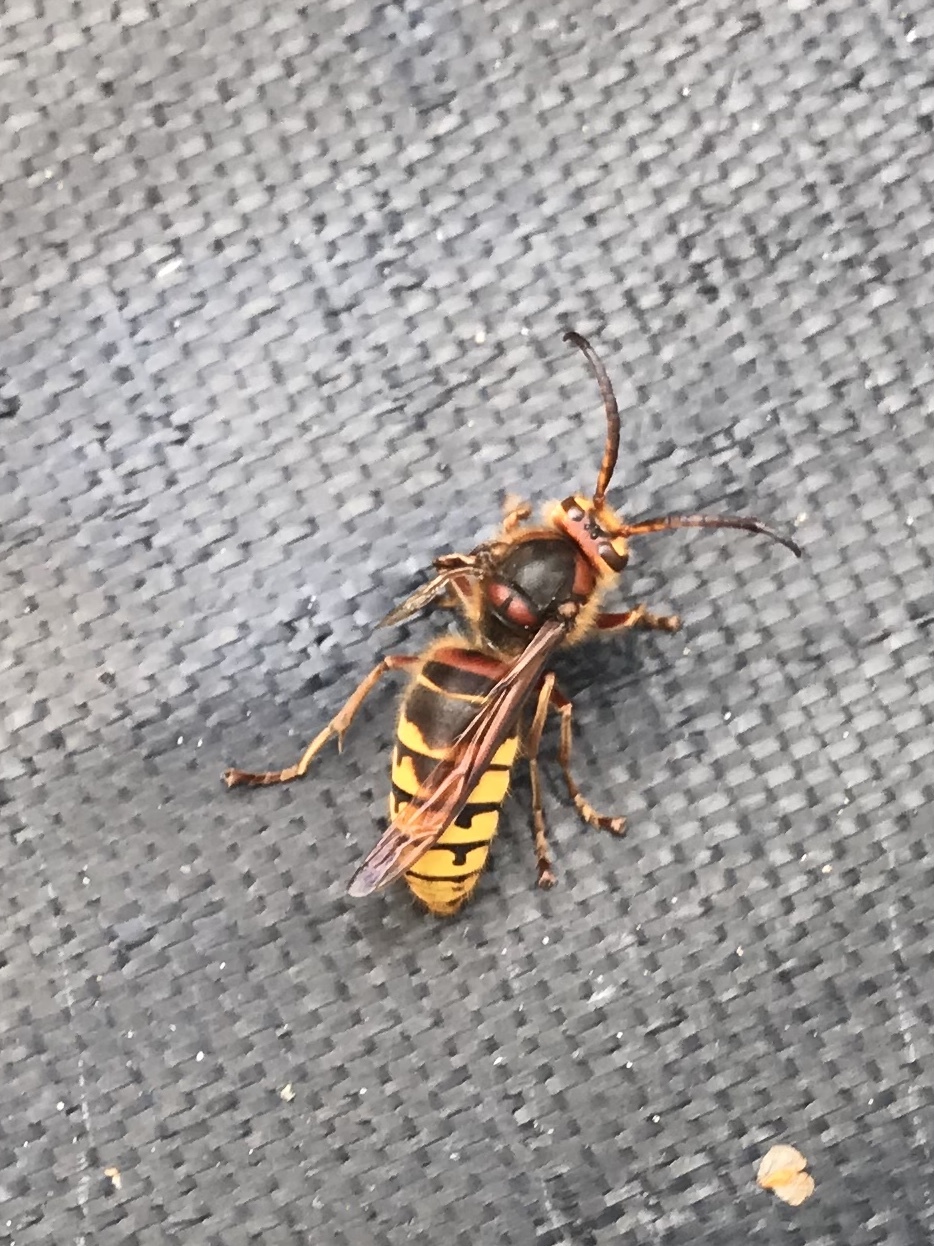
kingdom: Animalia
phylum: Arthropoda
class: Insecta
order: Hymenoptera
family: Vespidae
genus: Vespa
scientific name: Vespa crabro
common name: Hornet
